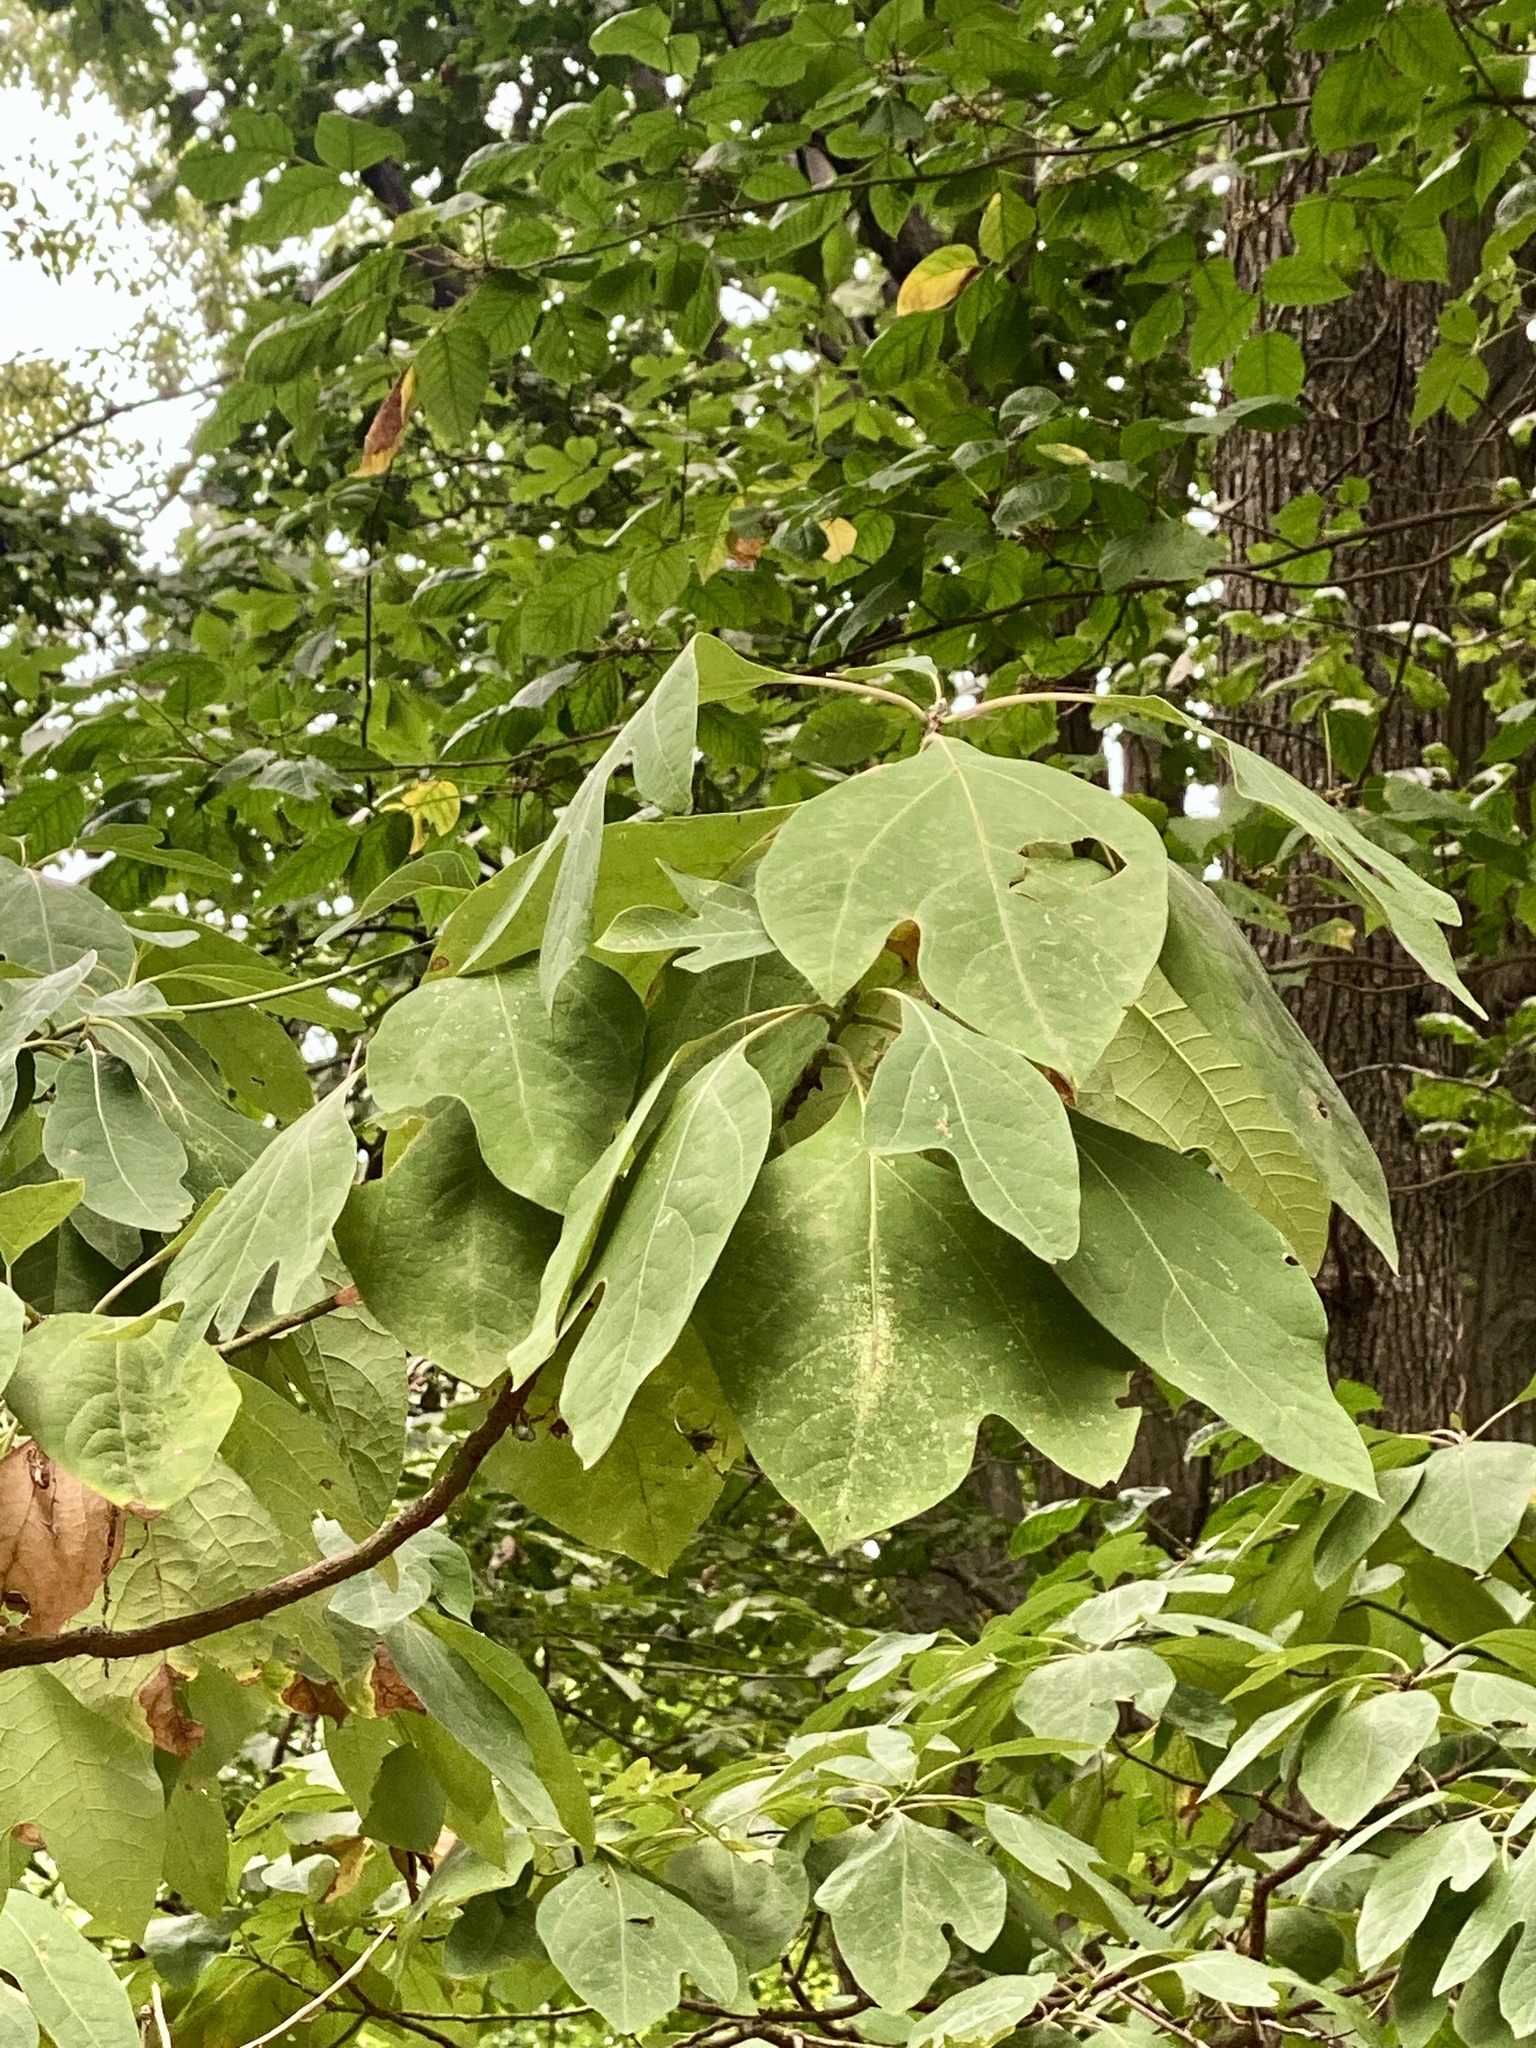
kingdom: Plantae
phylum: Tracheophyta
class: Magnoliopsida
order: Laurales
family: Lauraceae
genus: Sassafras
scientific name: Sassafras albidum
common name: Sassafras
